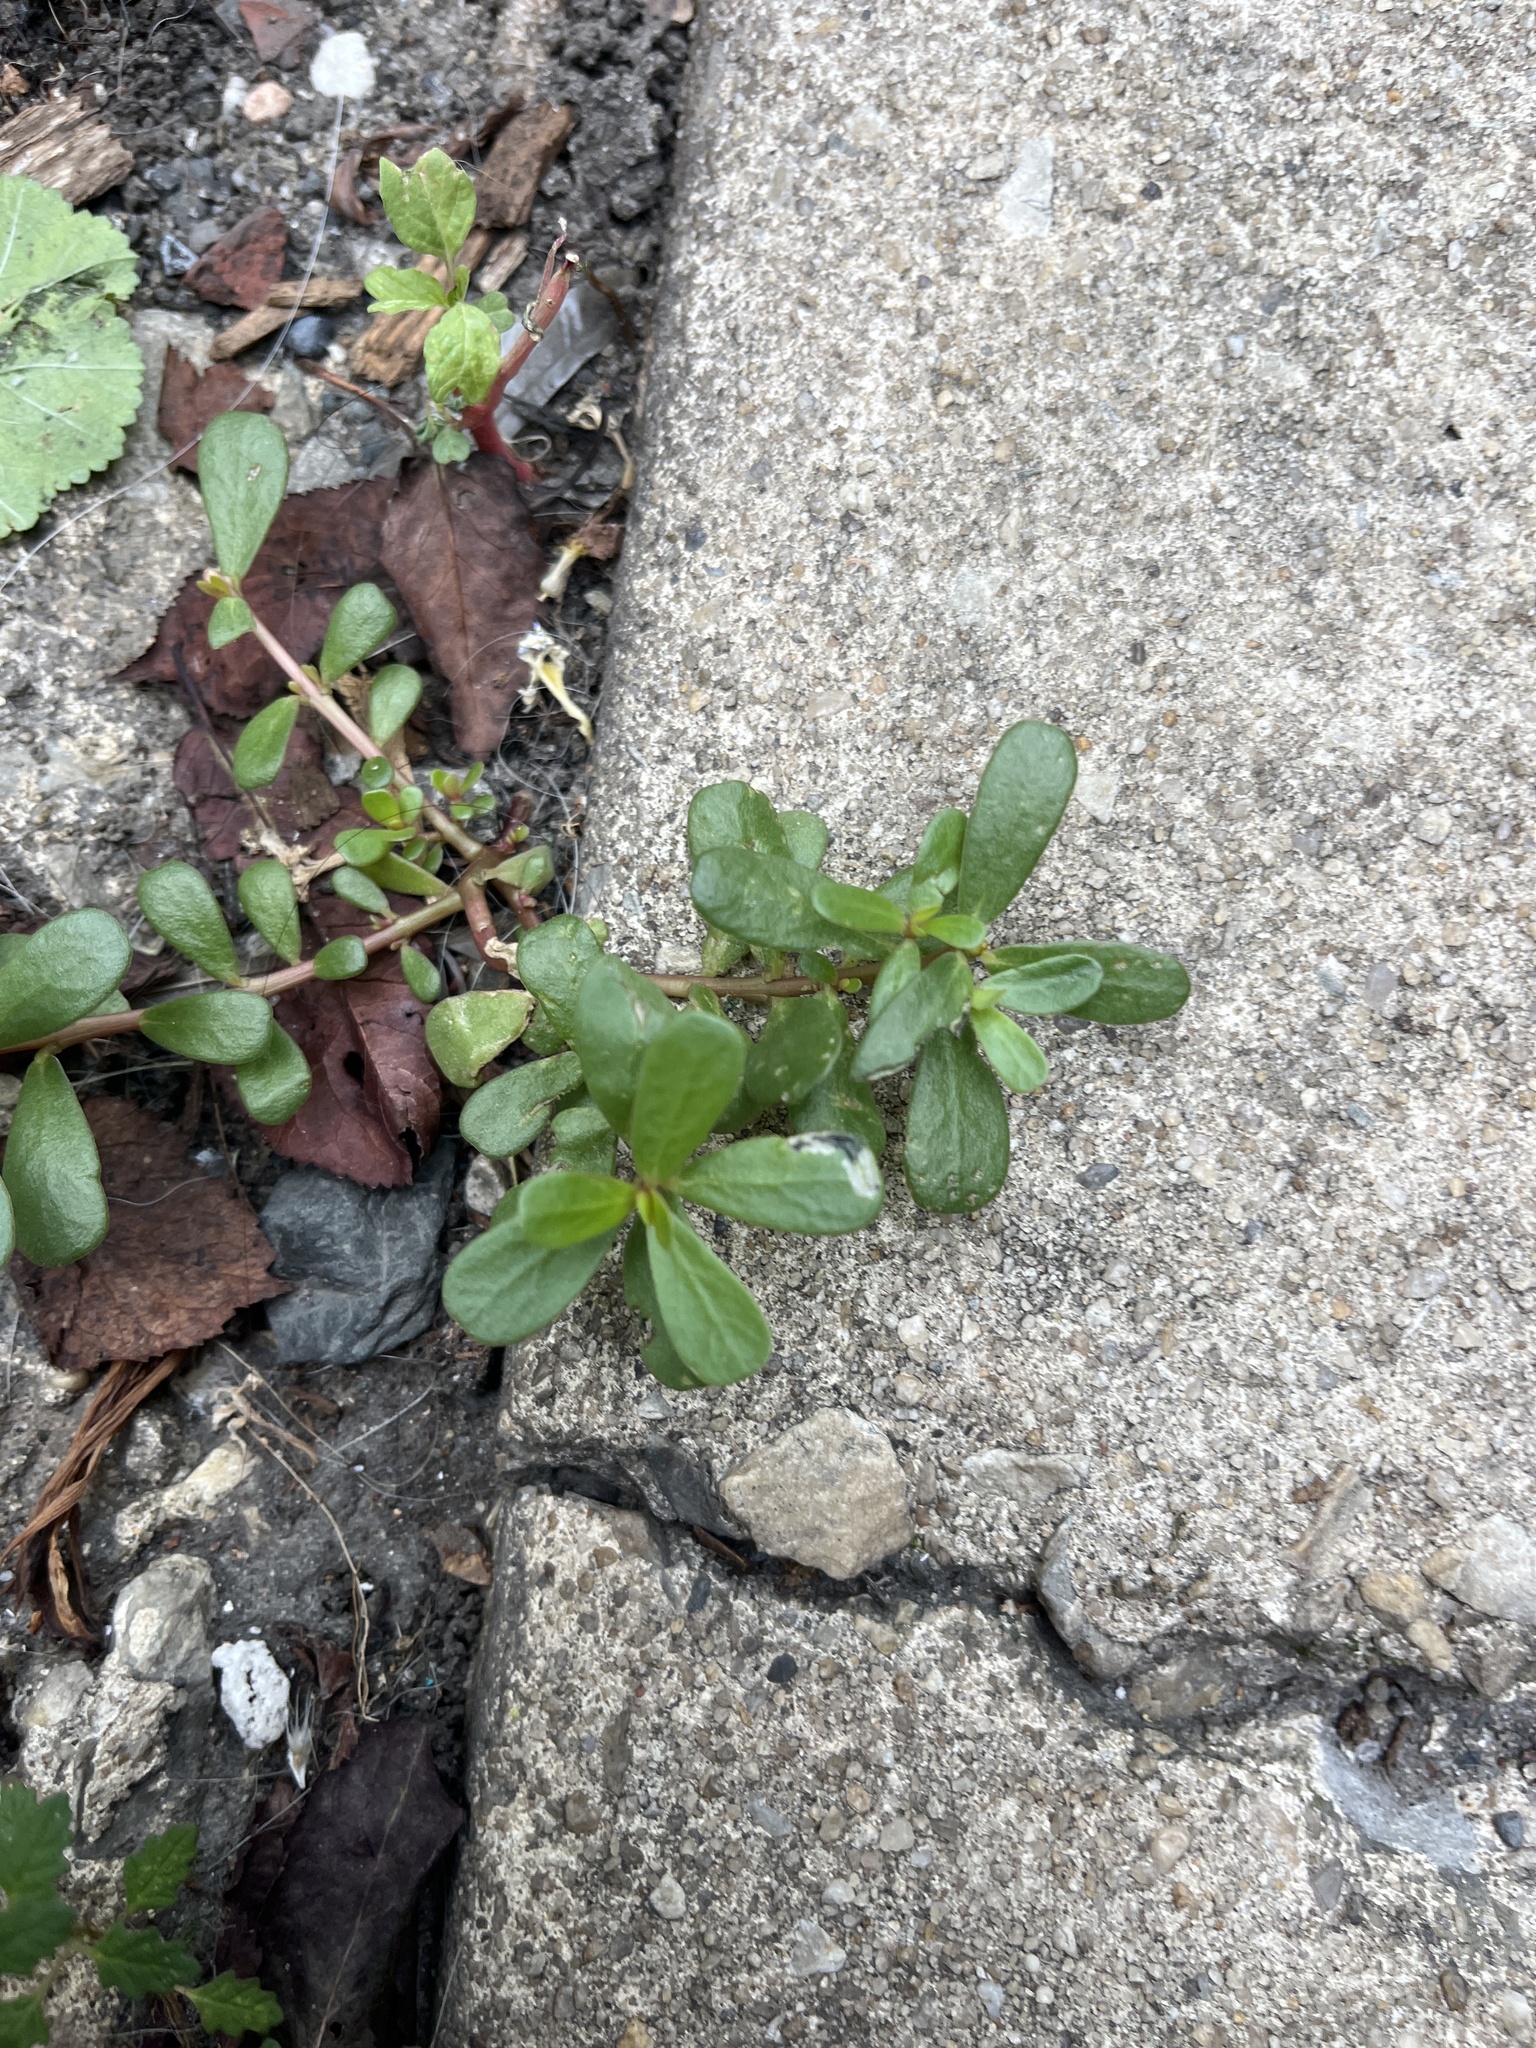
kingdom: Plantae
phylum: Tracheophyta
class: Magnoliopsida
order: Caryophyllales
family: Portulacaceae
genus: Portulaca
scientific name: Portulaca oleracea
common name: Common purslane
